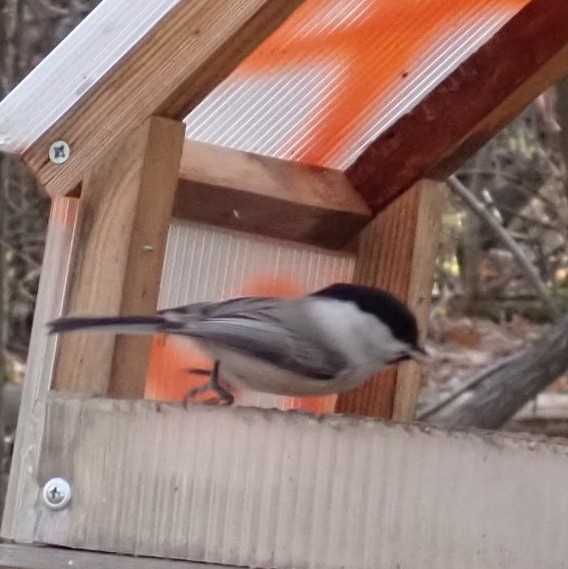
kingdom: Animalia
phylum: Chordata
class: Aves
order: Passeriformes
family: Paridae
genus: Poecile
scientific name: Poecile montanus
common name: Willow tit
